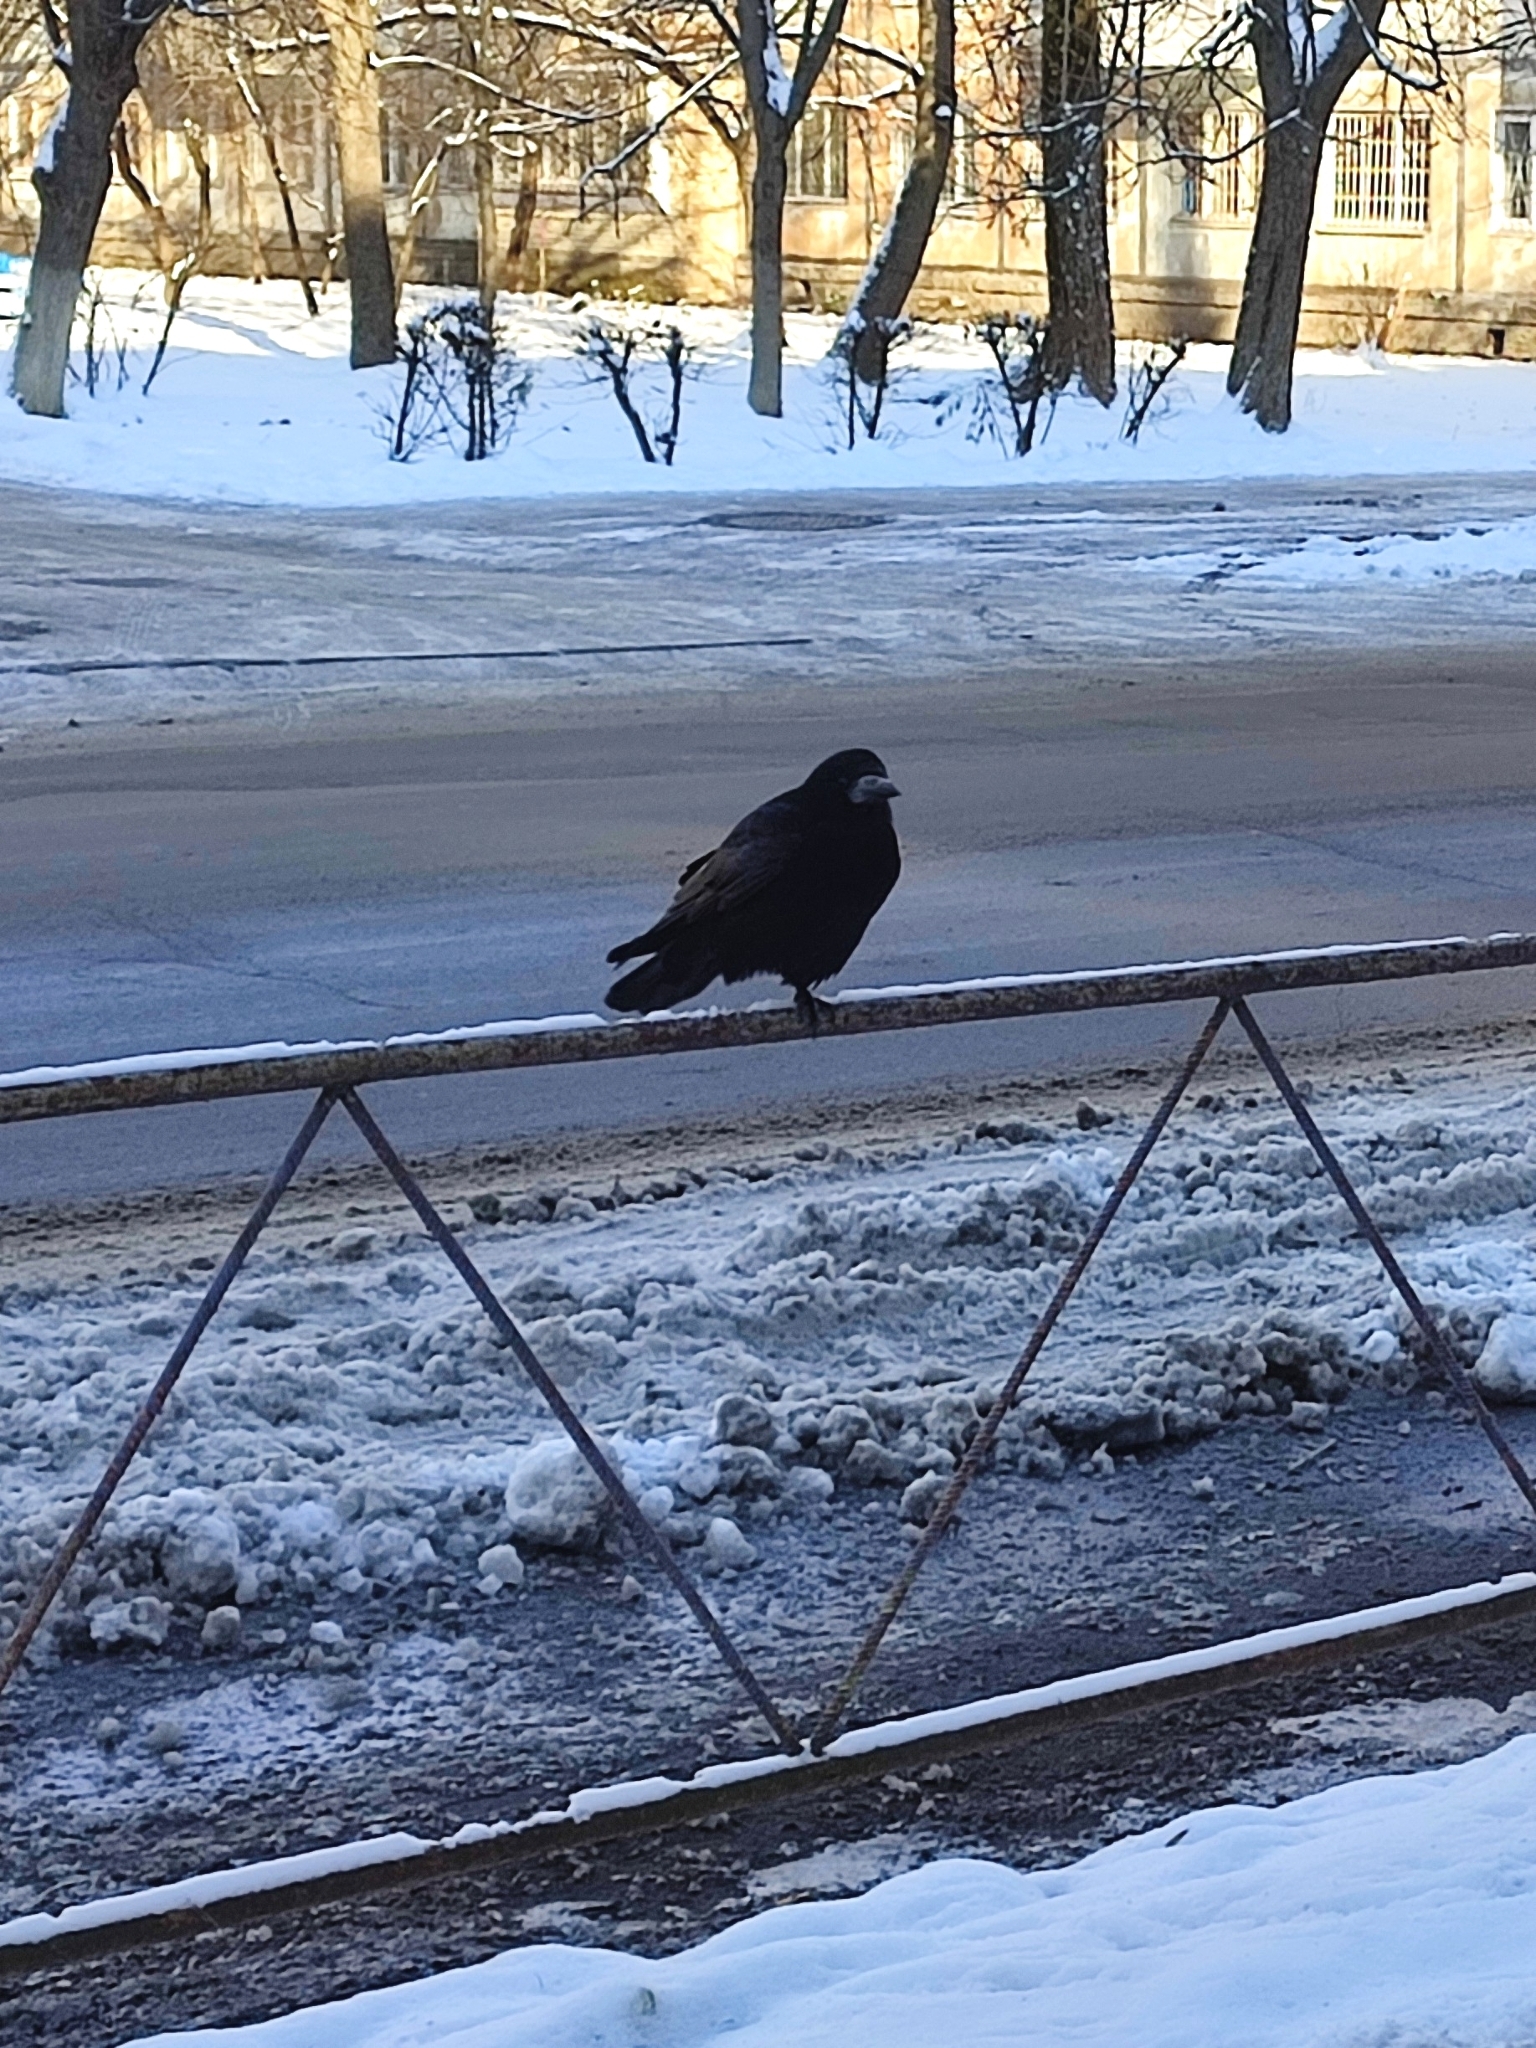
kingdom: Animalia
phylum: Chordata
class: Aves
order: Passeriformes
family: Corvidae
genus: Corvus
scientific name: Corvus frugilegus
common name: Rook
